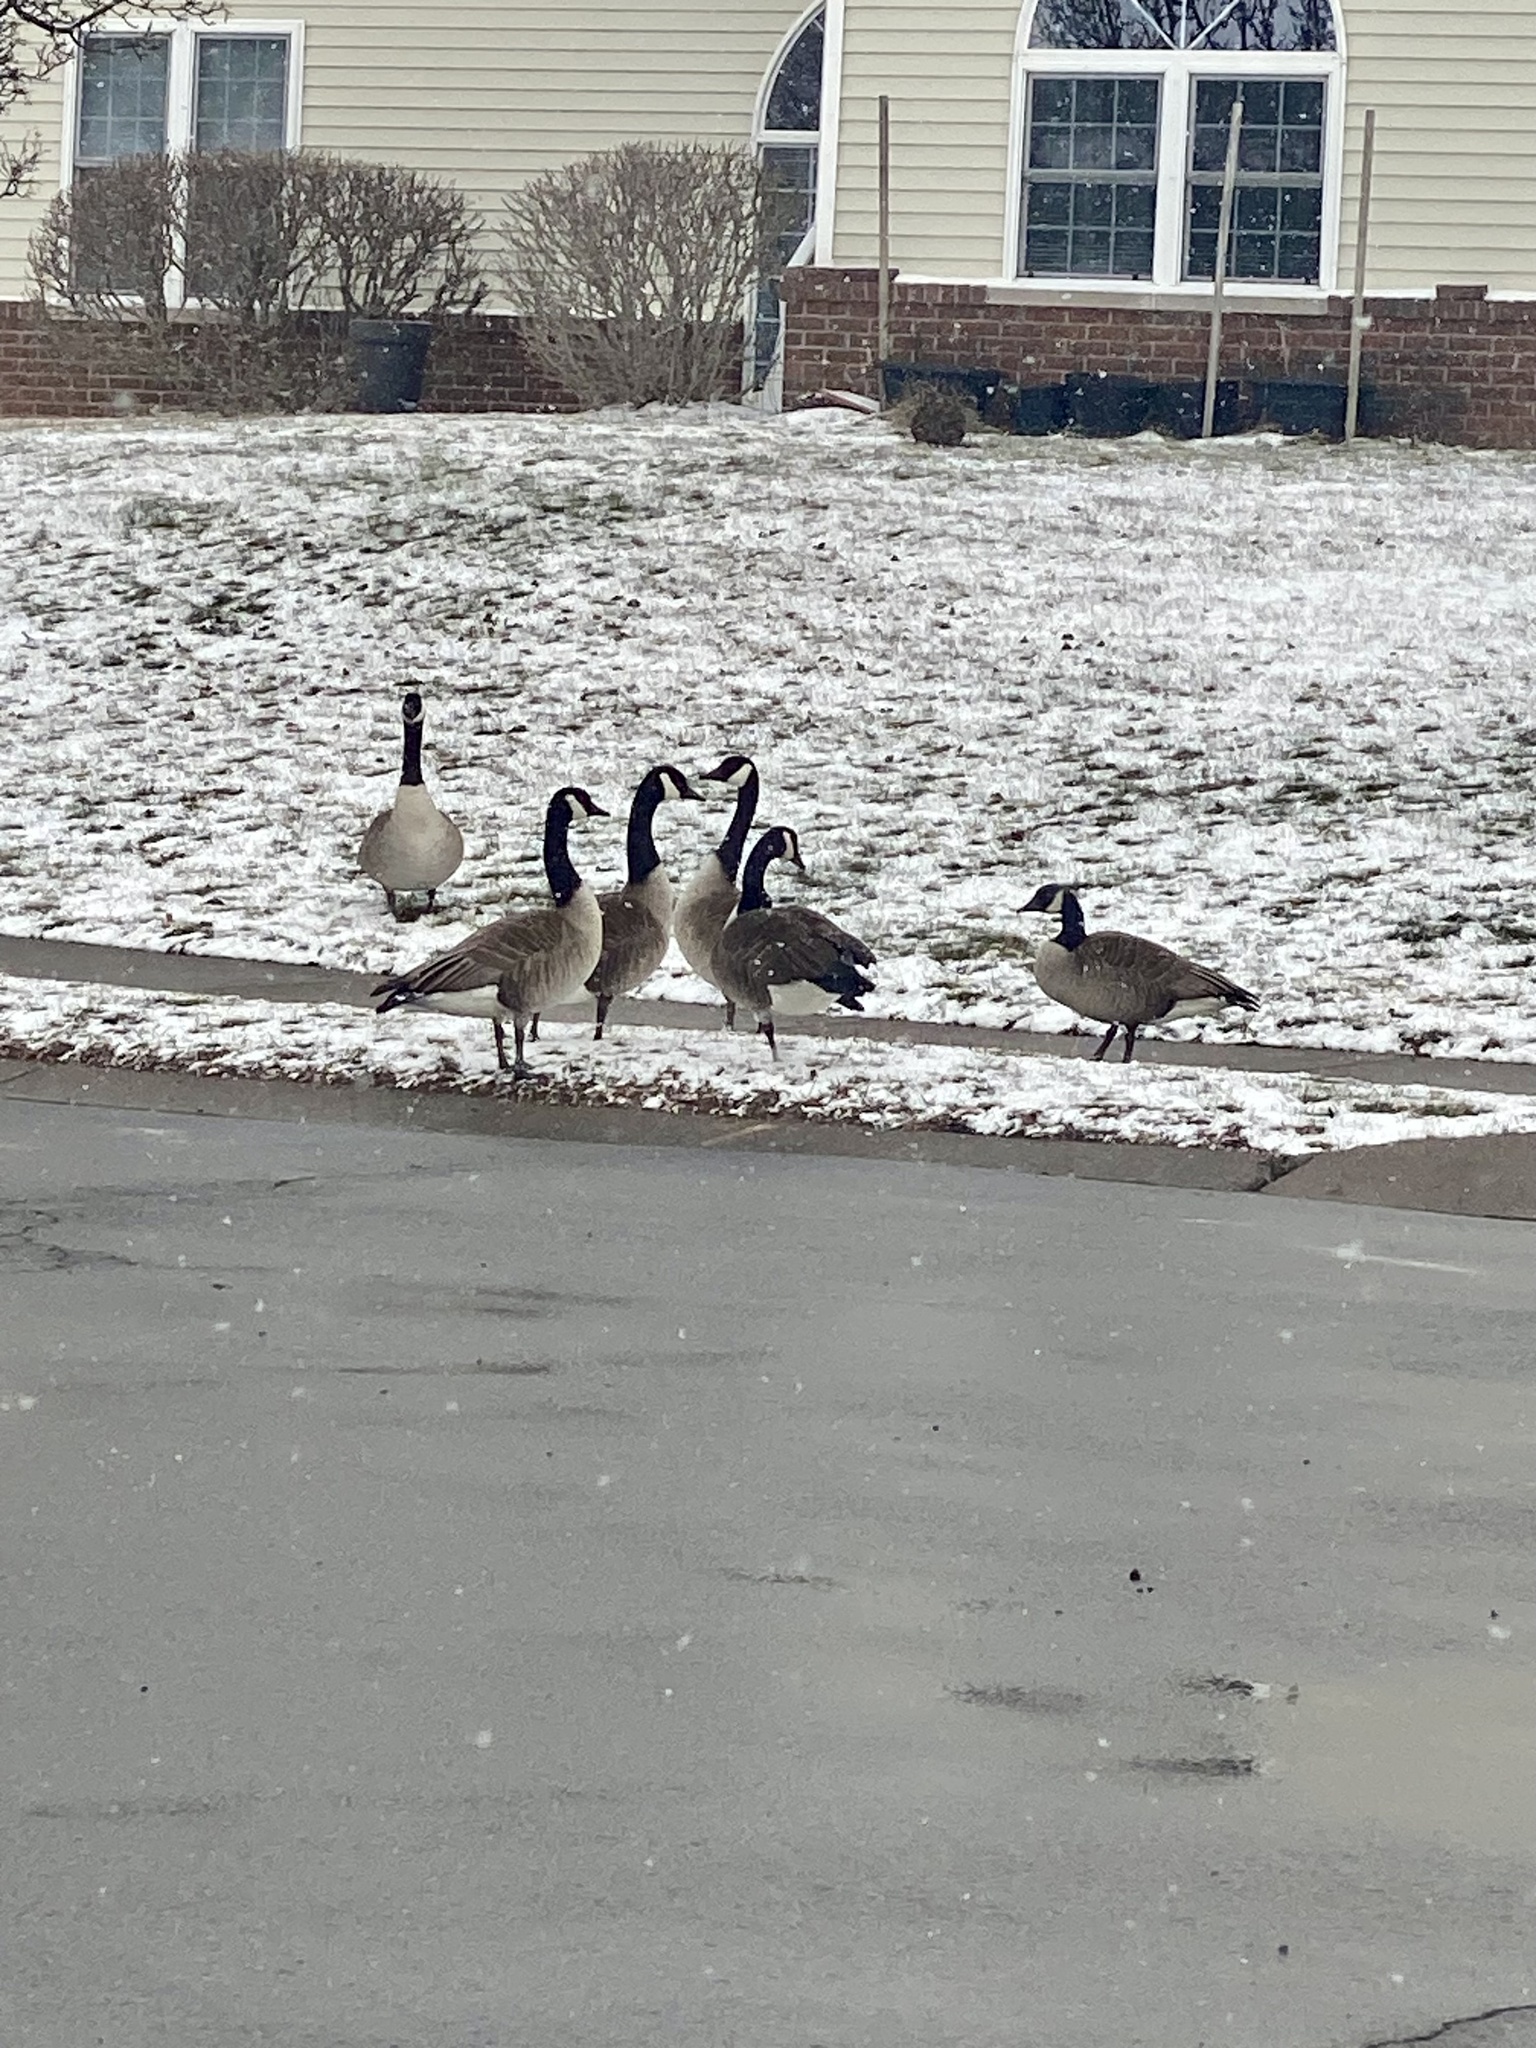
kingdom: Animalia
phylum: Chordata
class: Aves
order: Anseriformes
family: Anatidae
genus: Branta
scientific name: Branta canadensis
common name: Canada goose
